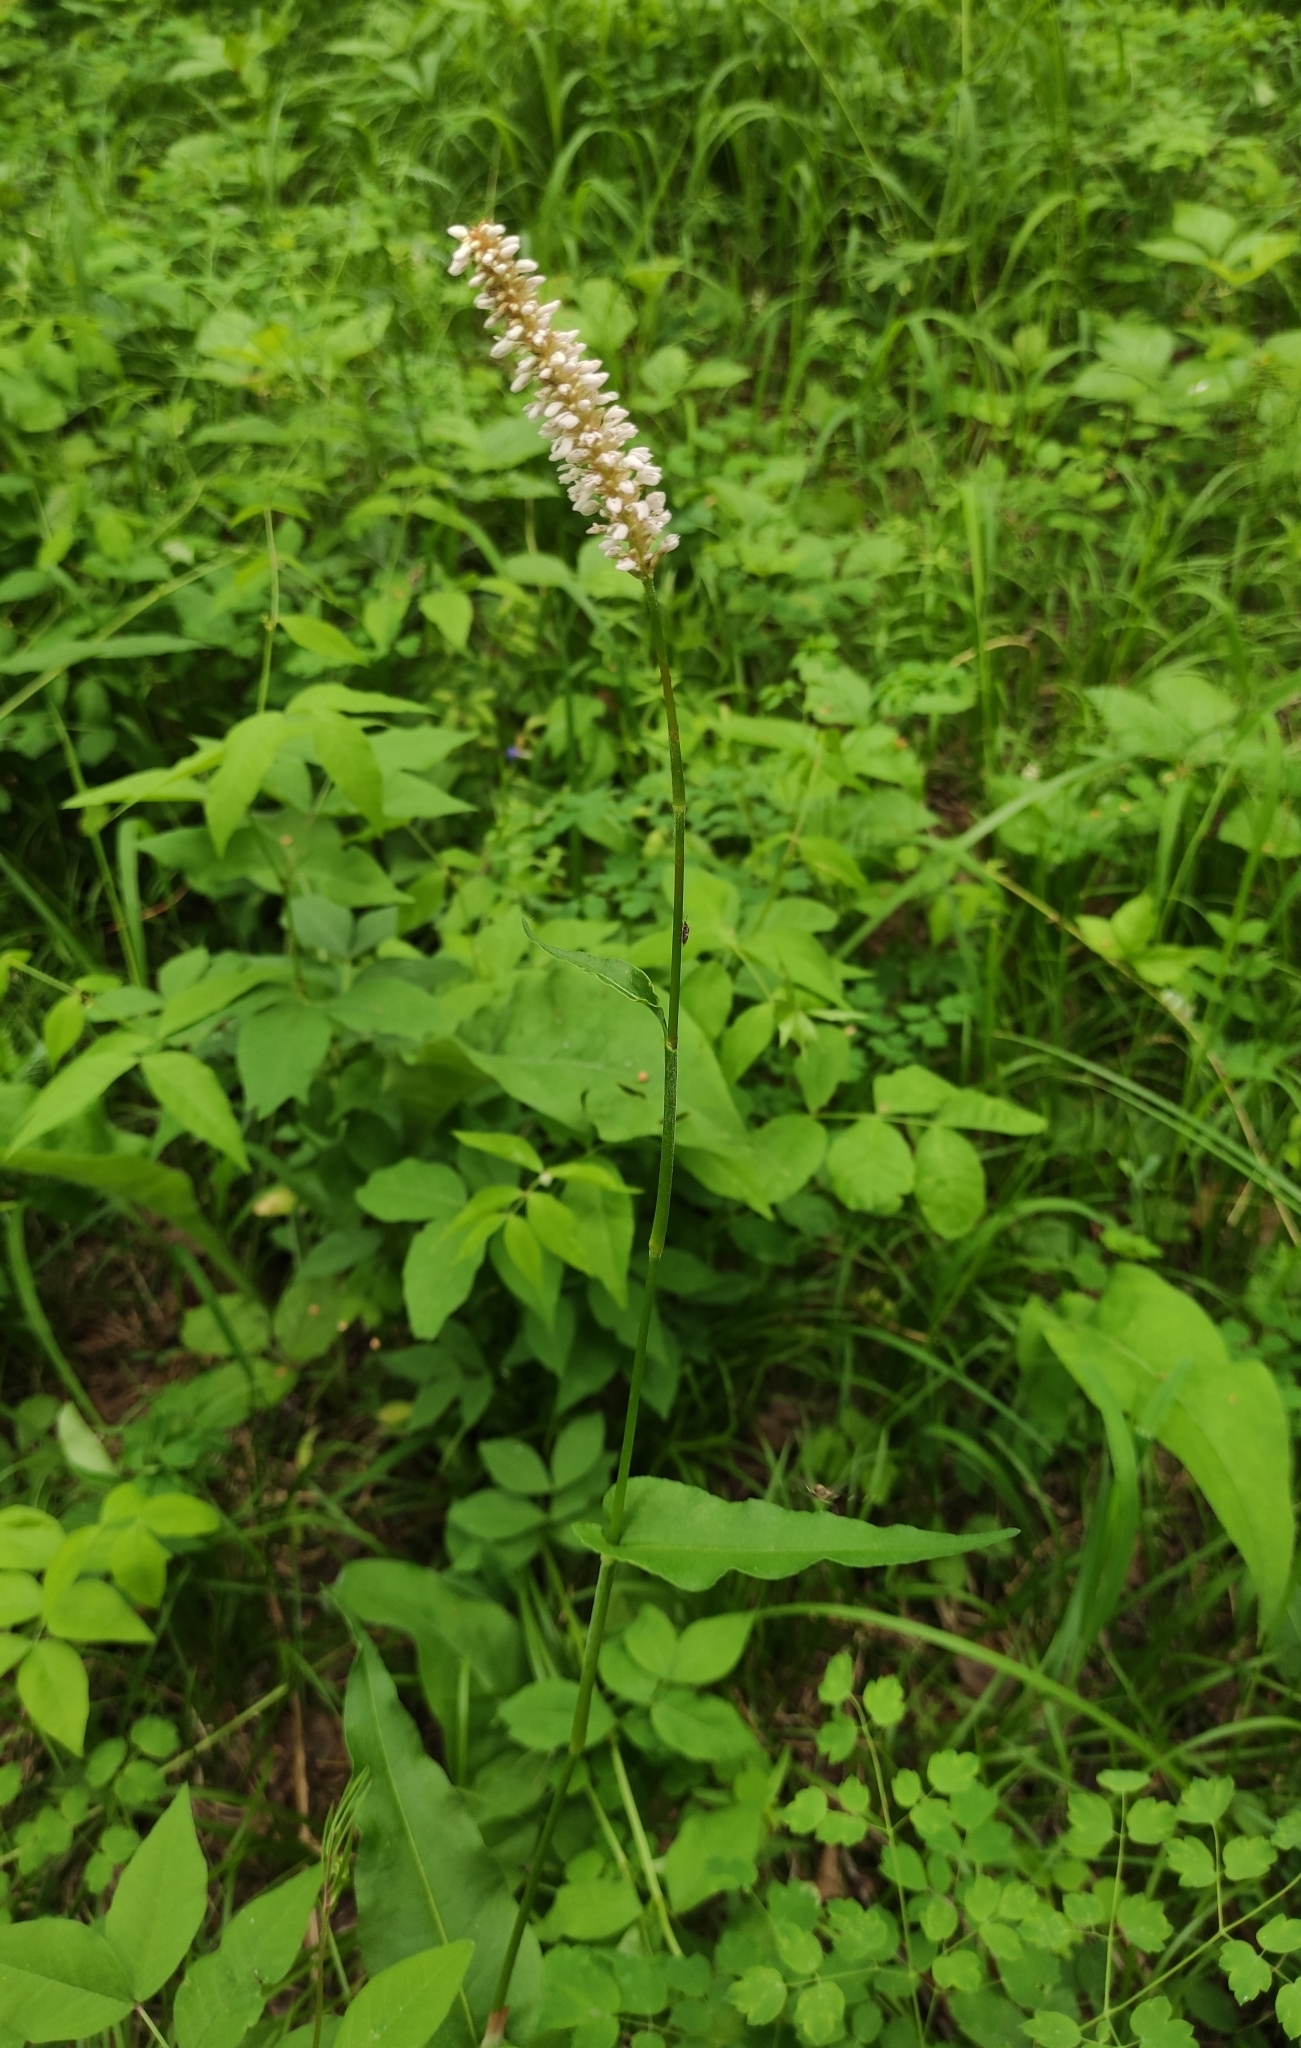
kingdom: Plantae
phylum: Tracheophyta
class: Magnoliopsida
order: Caryophyllales
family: Polygonaceae
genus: Bistorta
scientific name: Bistorta officinalis
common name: Common bistort
